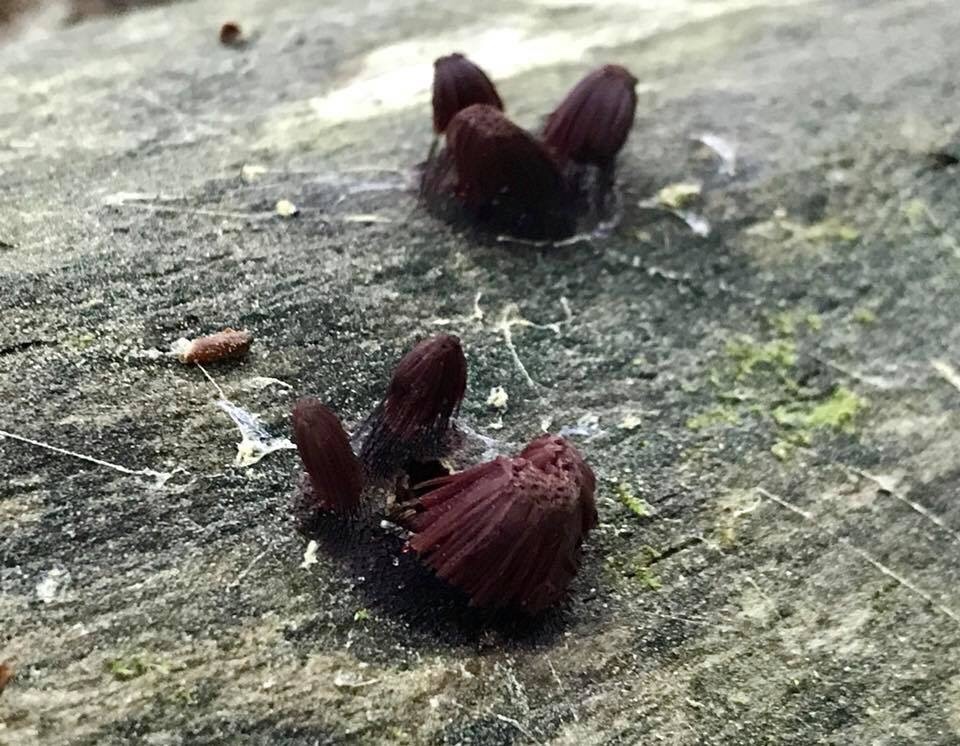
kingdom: Protozoa
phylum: Mycetozoa
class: Myxomycetes
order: Stemonitidales
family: Stemonitidaceae
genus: Stemonitis
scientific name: Stemonitis splendens
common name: Chocolate tube slime
